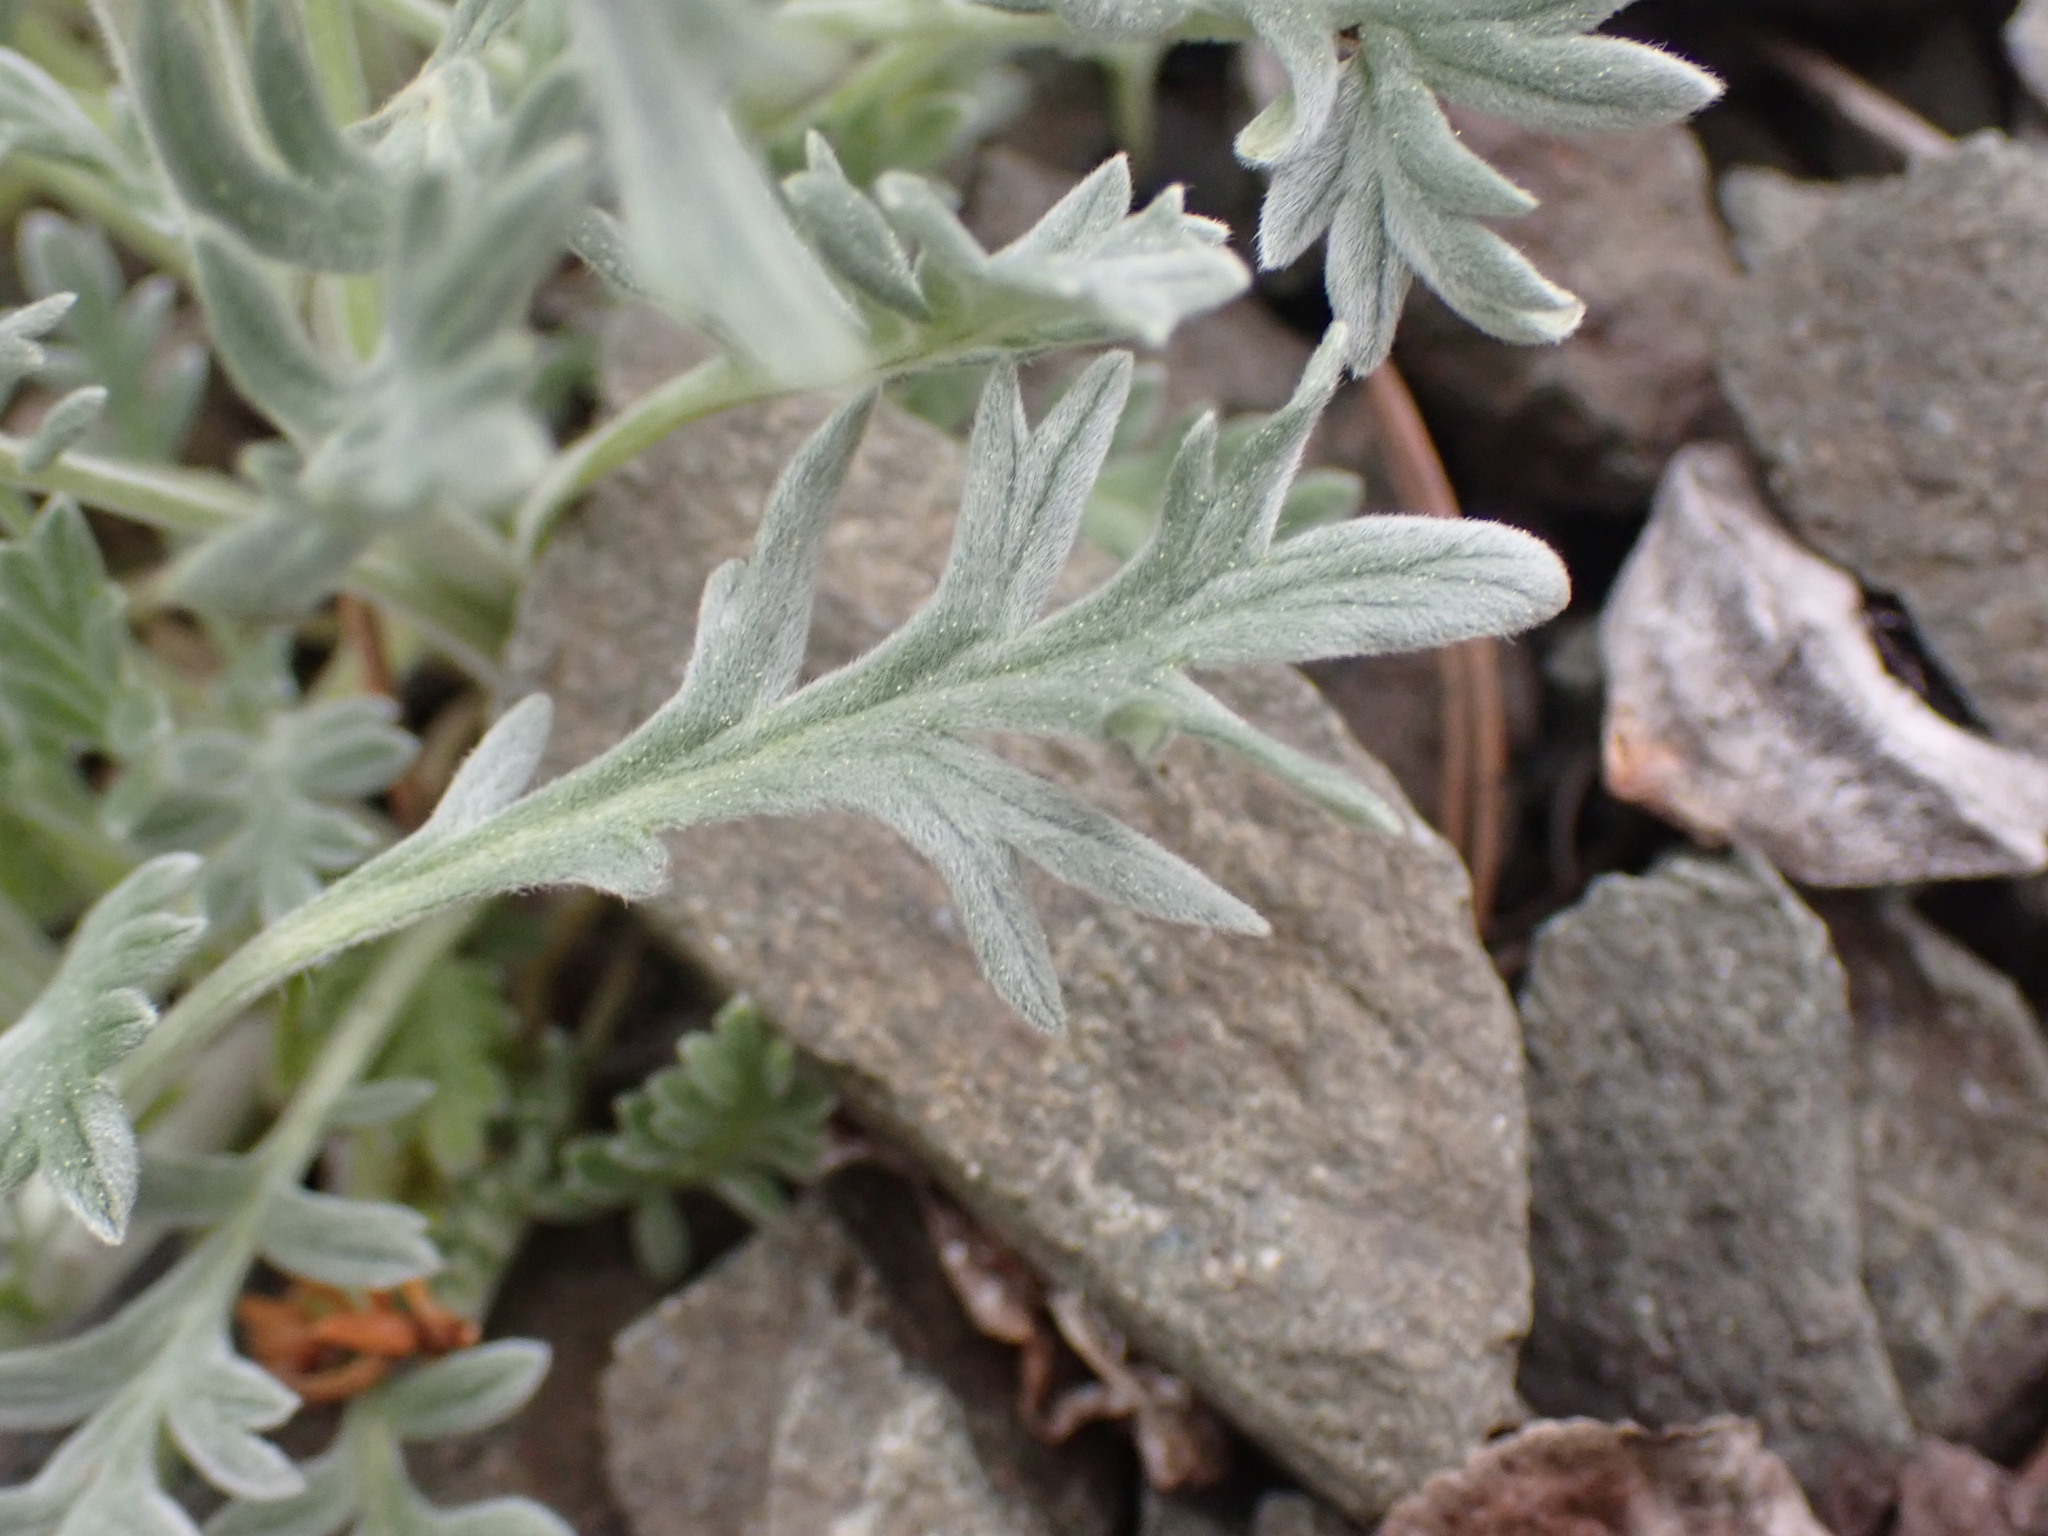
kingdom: Plantae
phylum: Tracheophyta
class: Magnoliopsida
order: Boraginales
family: Hydrophyllaceae
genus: Phacelia
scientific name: Phacelia sericea
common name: Silky phacelia
